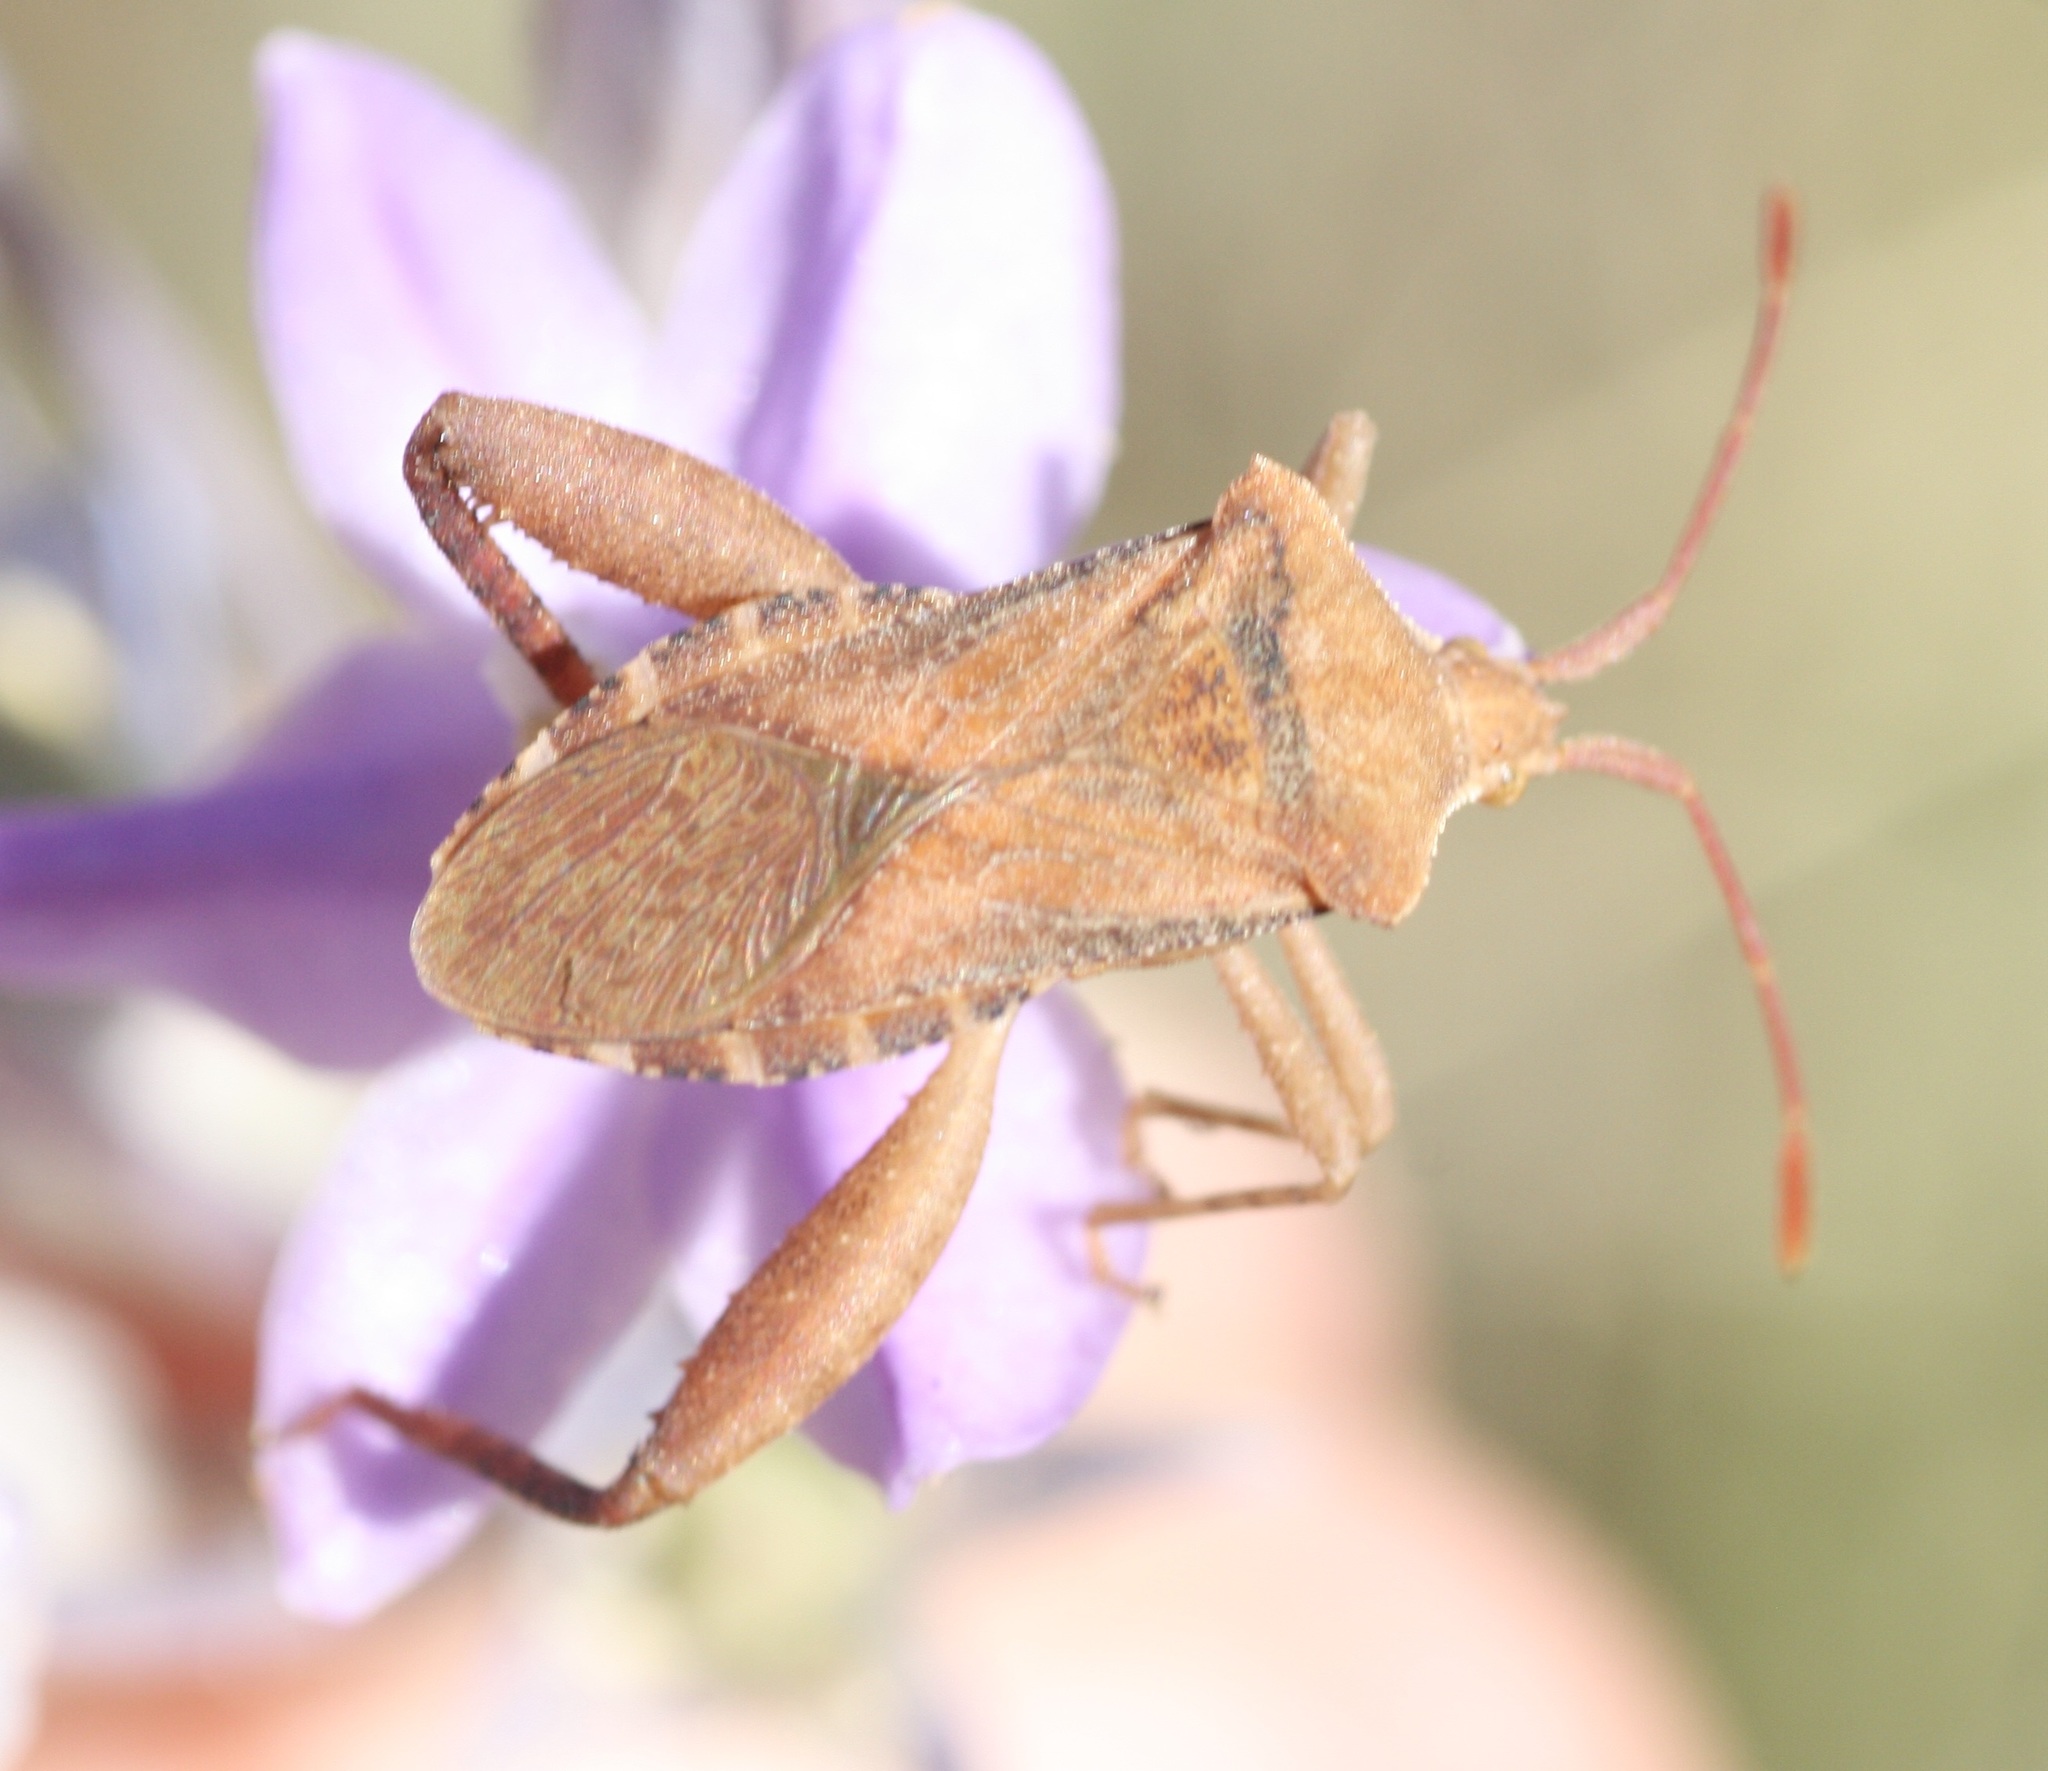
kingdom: Animalia
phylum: Arthropoda
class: Insecta
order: Hemiptera
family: Coreidae
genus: Mamurius
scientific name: Mamurius mopsus
